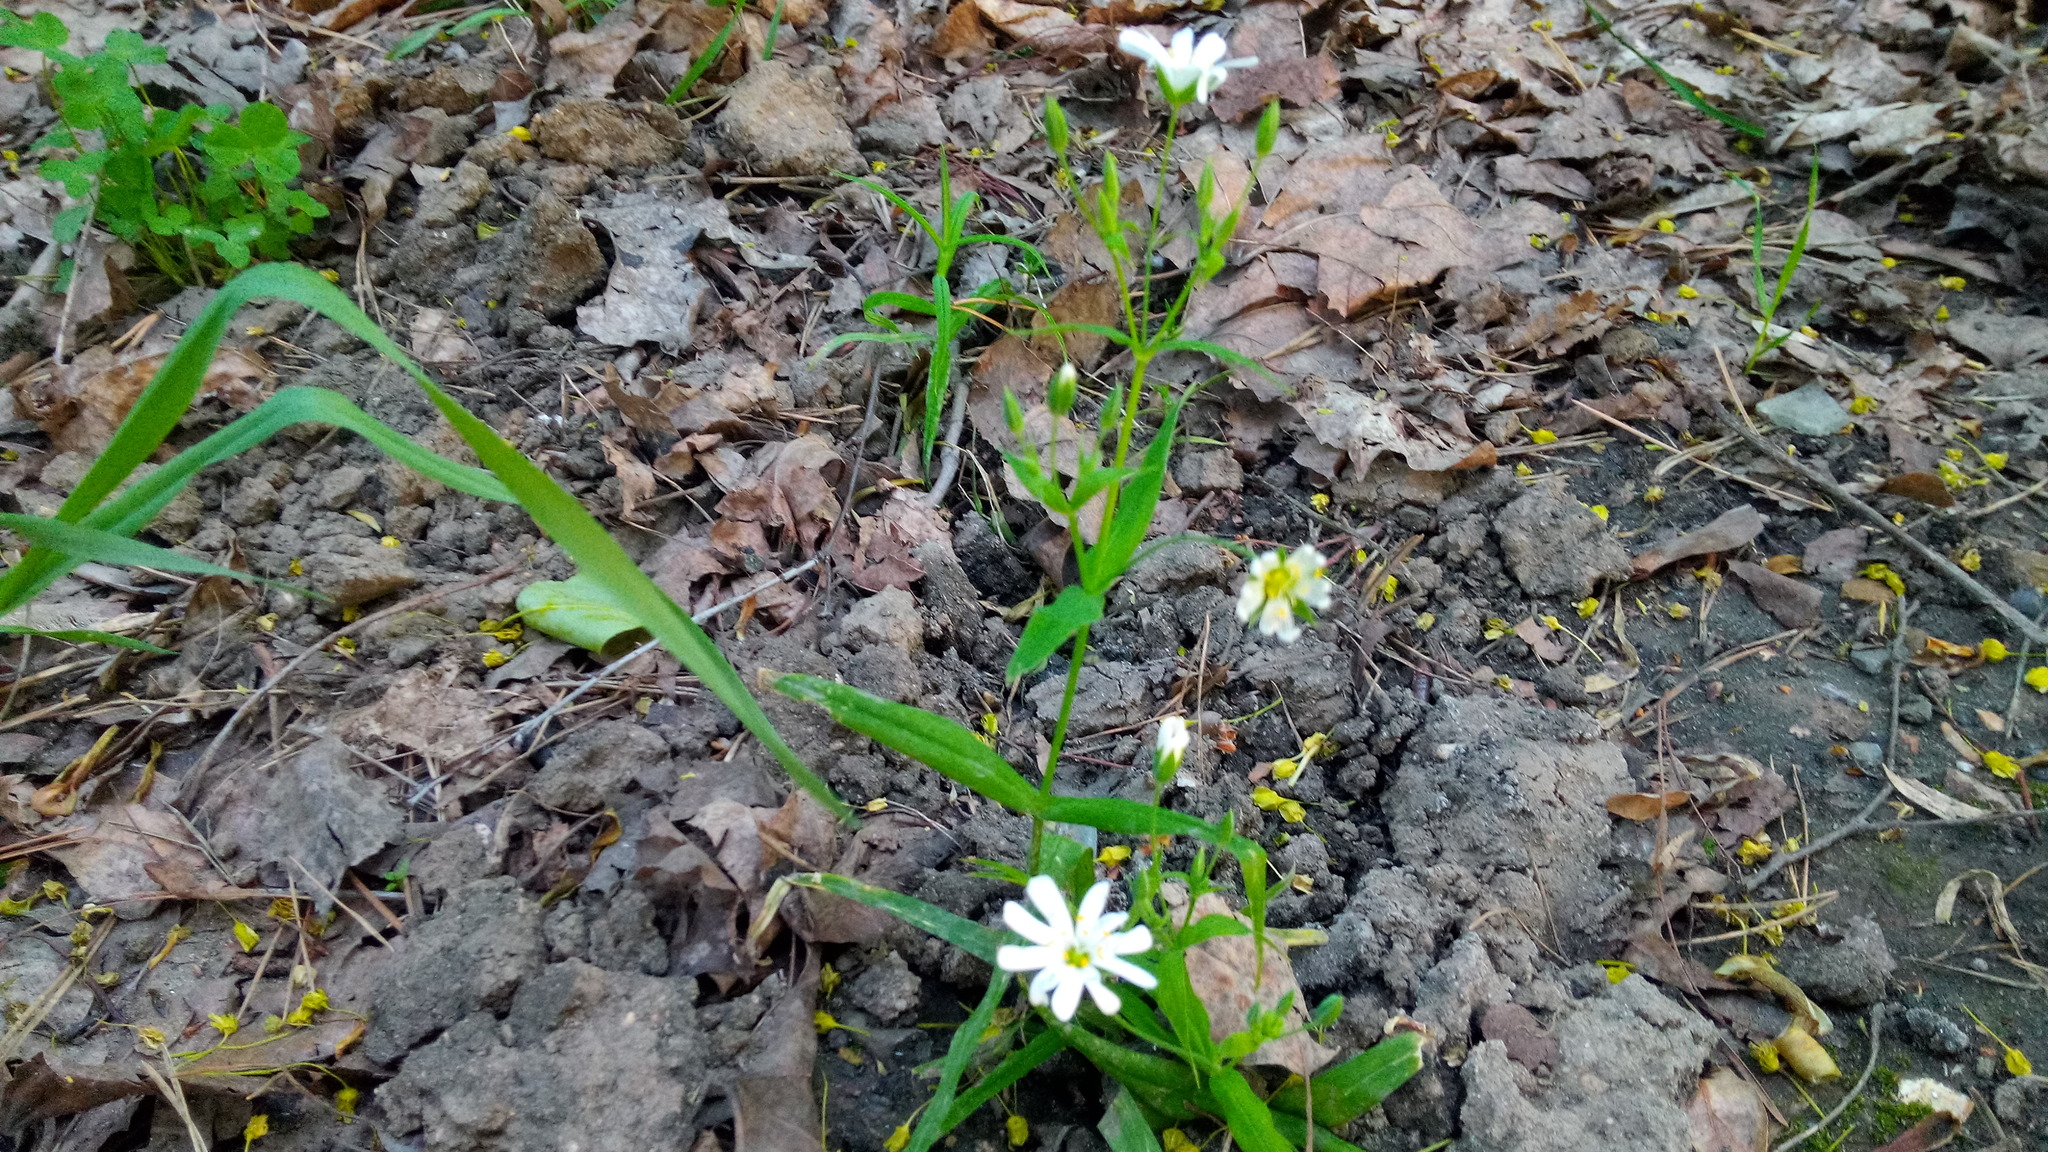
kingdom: Plantae
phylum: Tracheophyta
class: Magnoliopsida
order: Caryophyllales
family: Caryophyllaceae
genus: Rabelera
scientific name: Rabelera holostea
